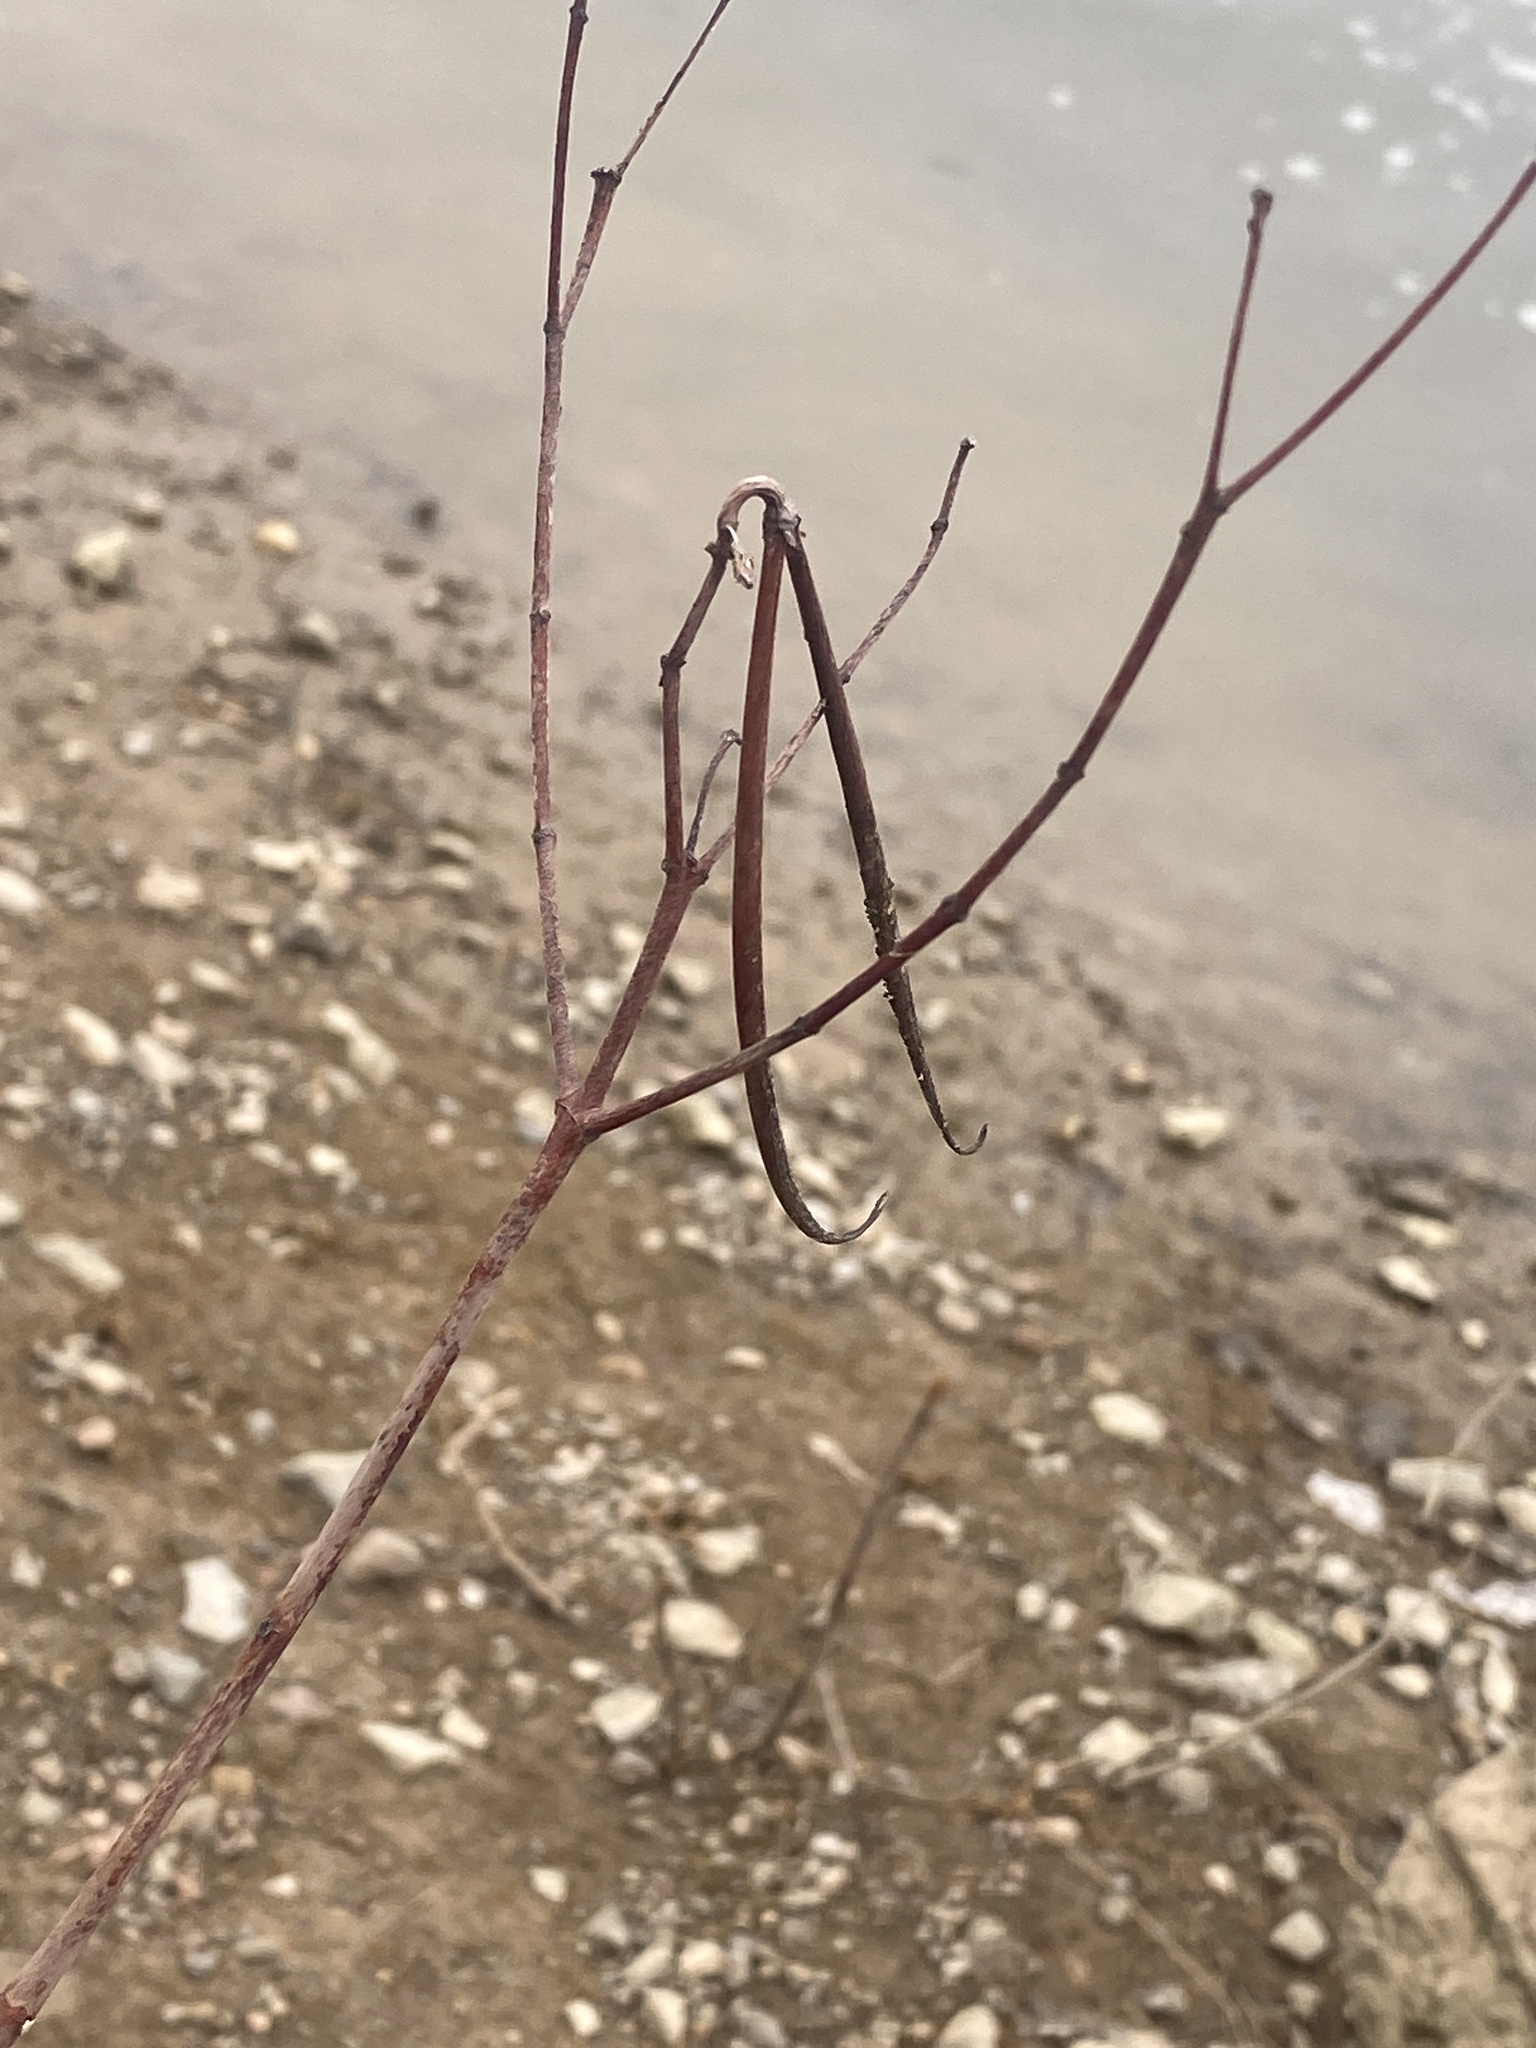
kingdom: Plantae
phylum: Tracheophyta
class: Magnoliopsida
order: Gentianales
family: Apocynaceae
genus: Apocynum
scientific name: Apocynum cannabinum
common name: Hemp dogbane
